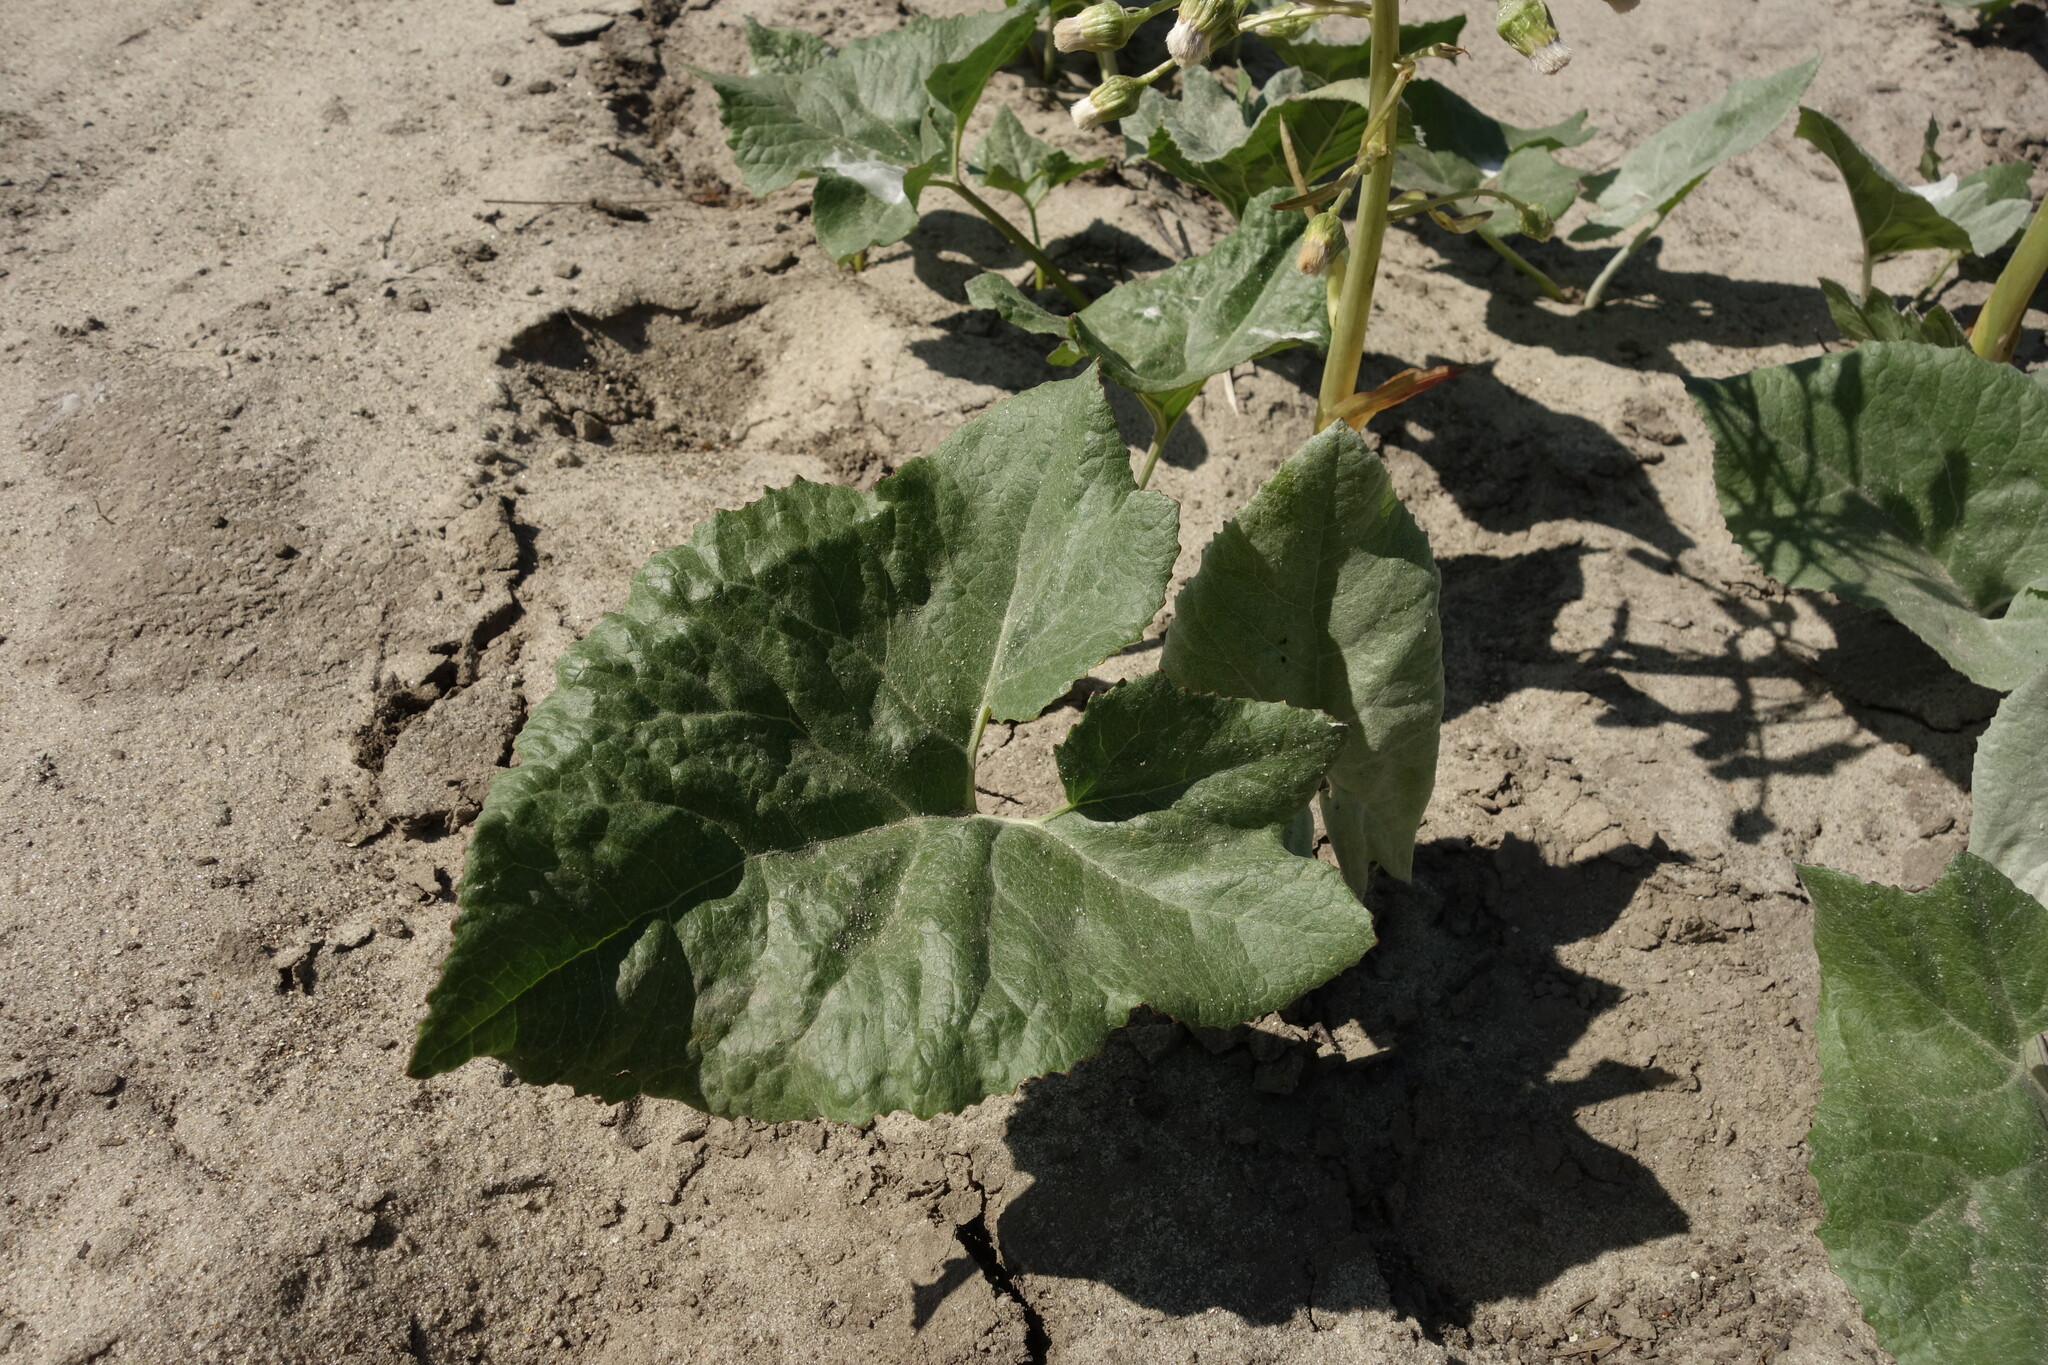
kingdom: Plantae
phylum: Tracheophyta
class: Magnoliopsida
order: Asterales
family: Asteraceae
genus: Petasites
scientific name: Petasites spurius
